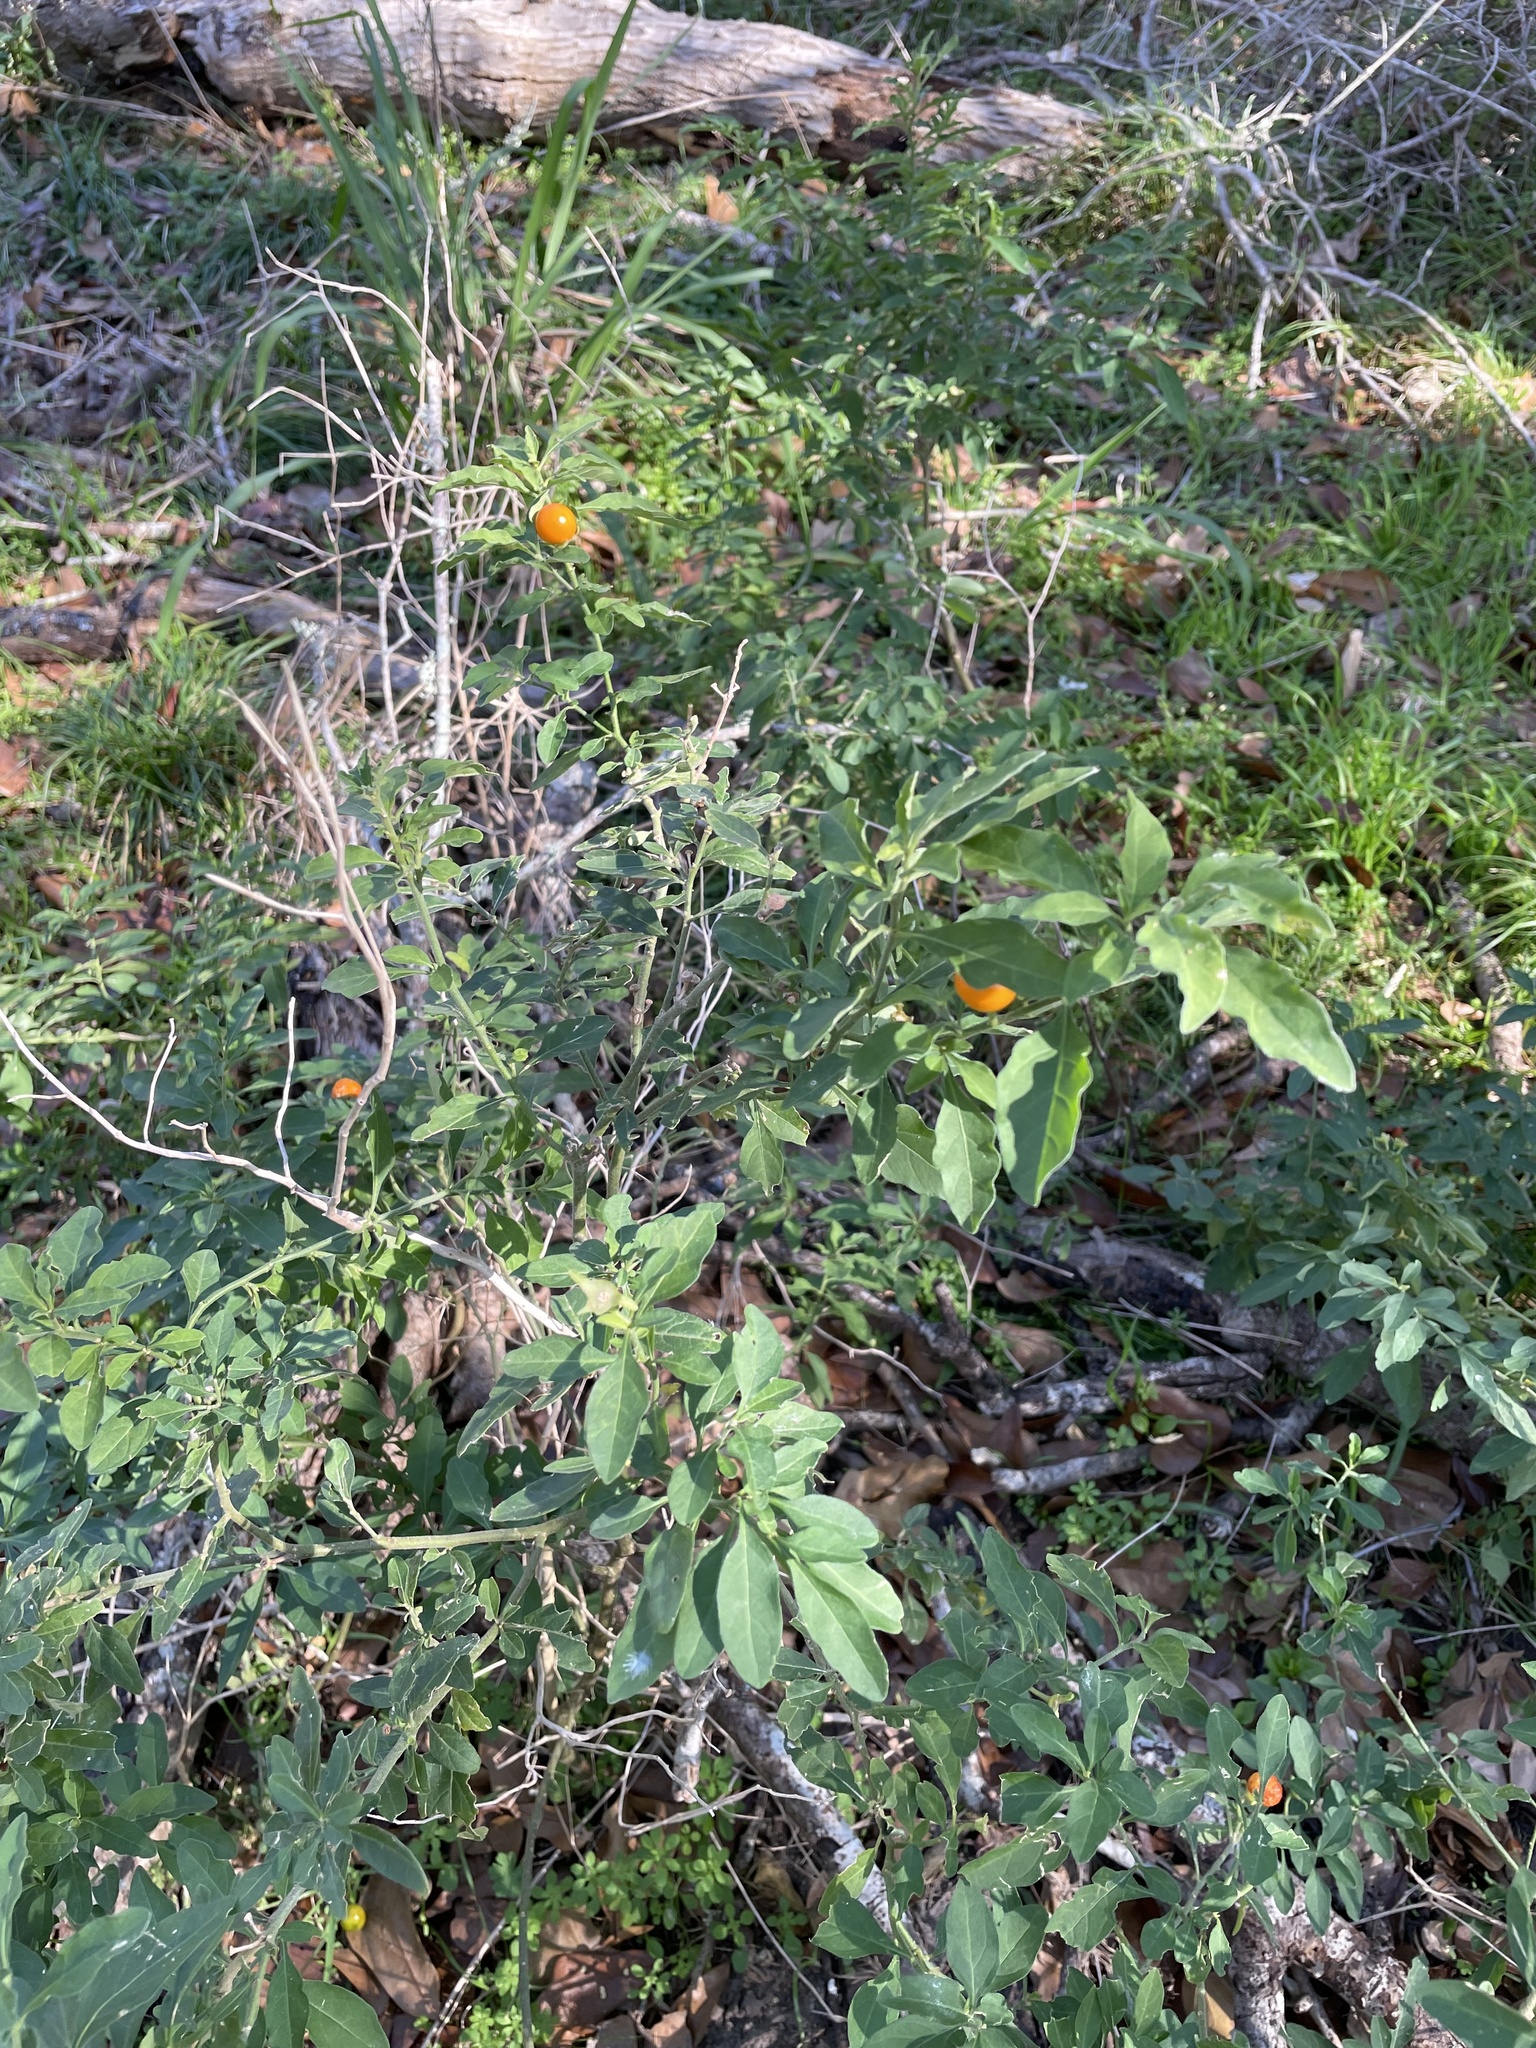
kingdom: Plantae
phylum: Tracheophyta
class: Magnoliopsida
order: Solanales
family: Solanaceae
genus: Solanum
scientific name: Solanum pseudocapsicum
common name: Jerusalem cherry
